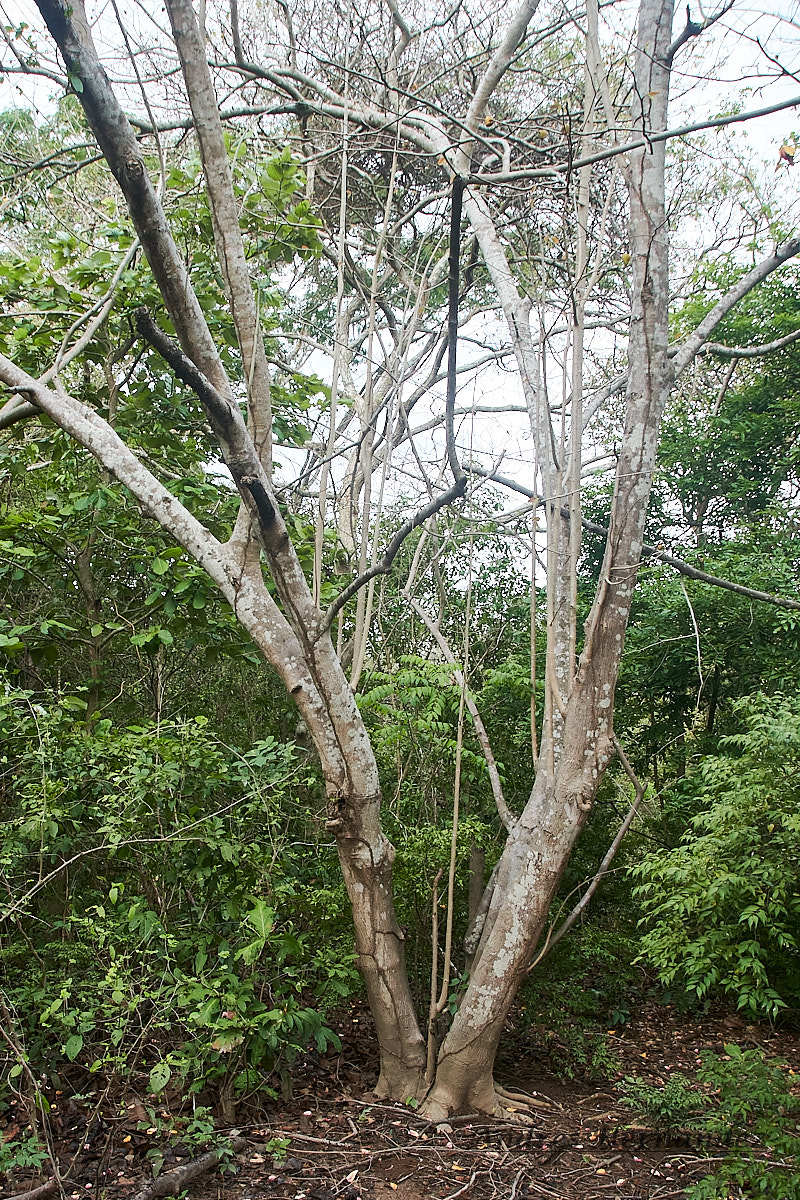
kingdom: Plantae
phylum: Tracheophyta
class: Magnoliopsida
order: Magnoliales
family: Annonaceae
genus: Annona
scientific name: Annona purpurea
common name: Negrohead
